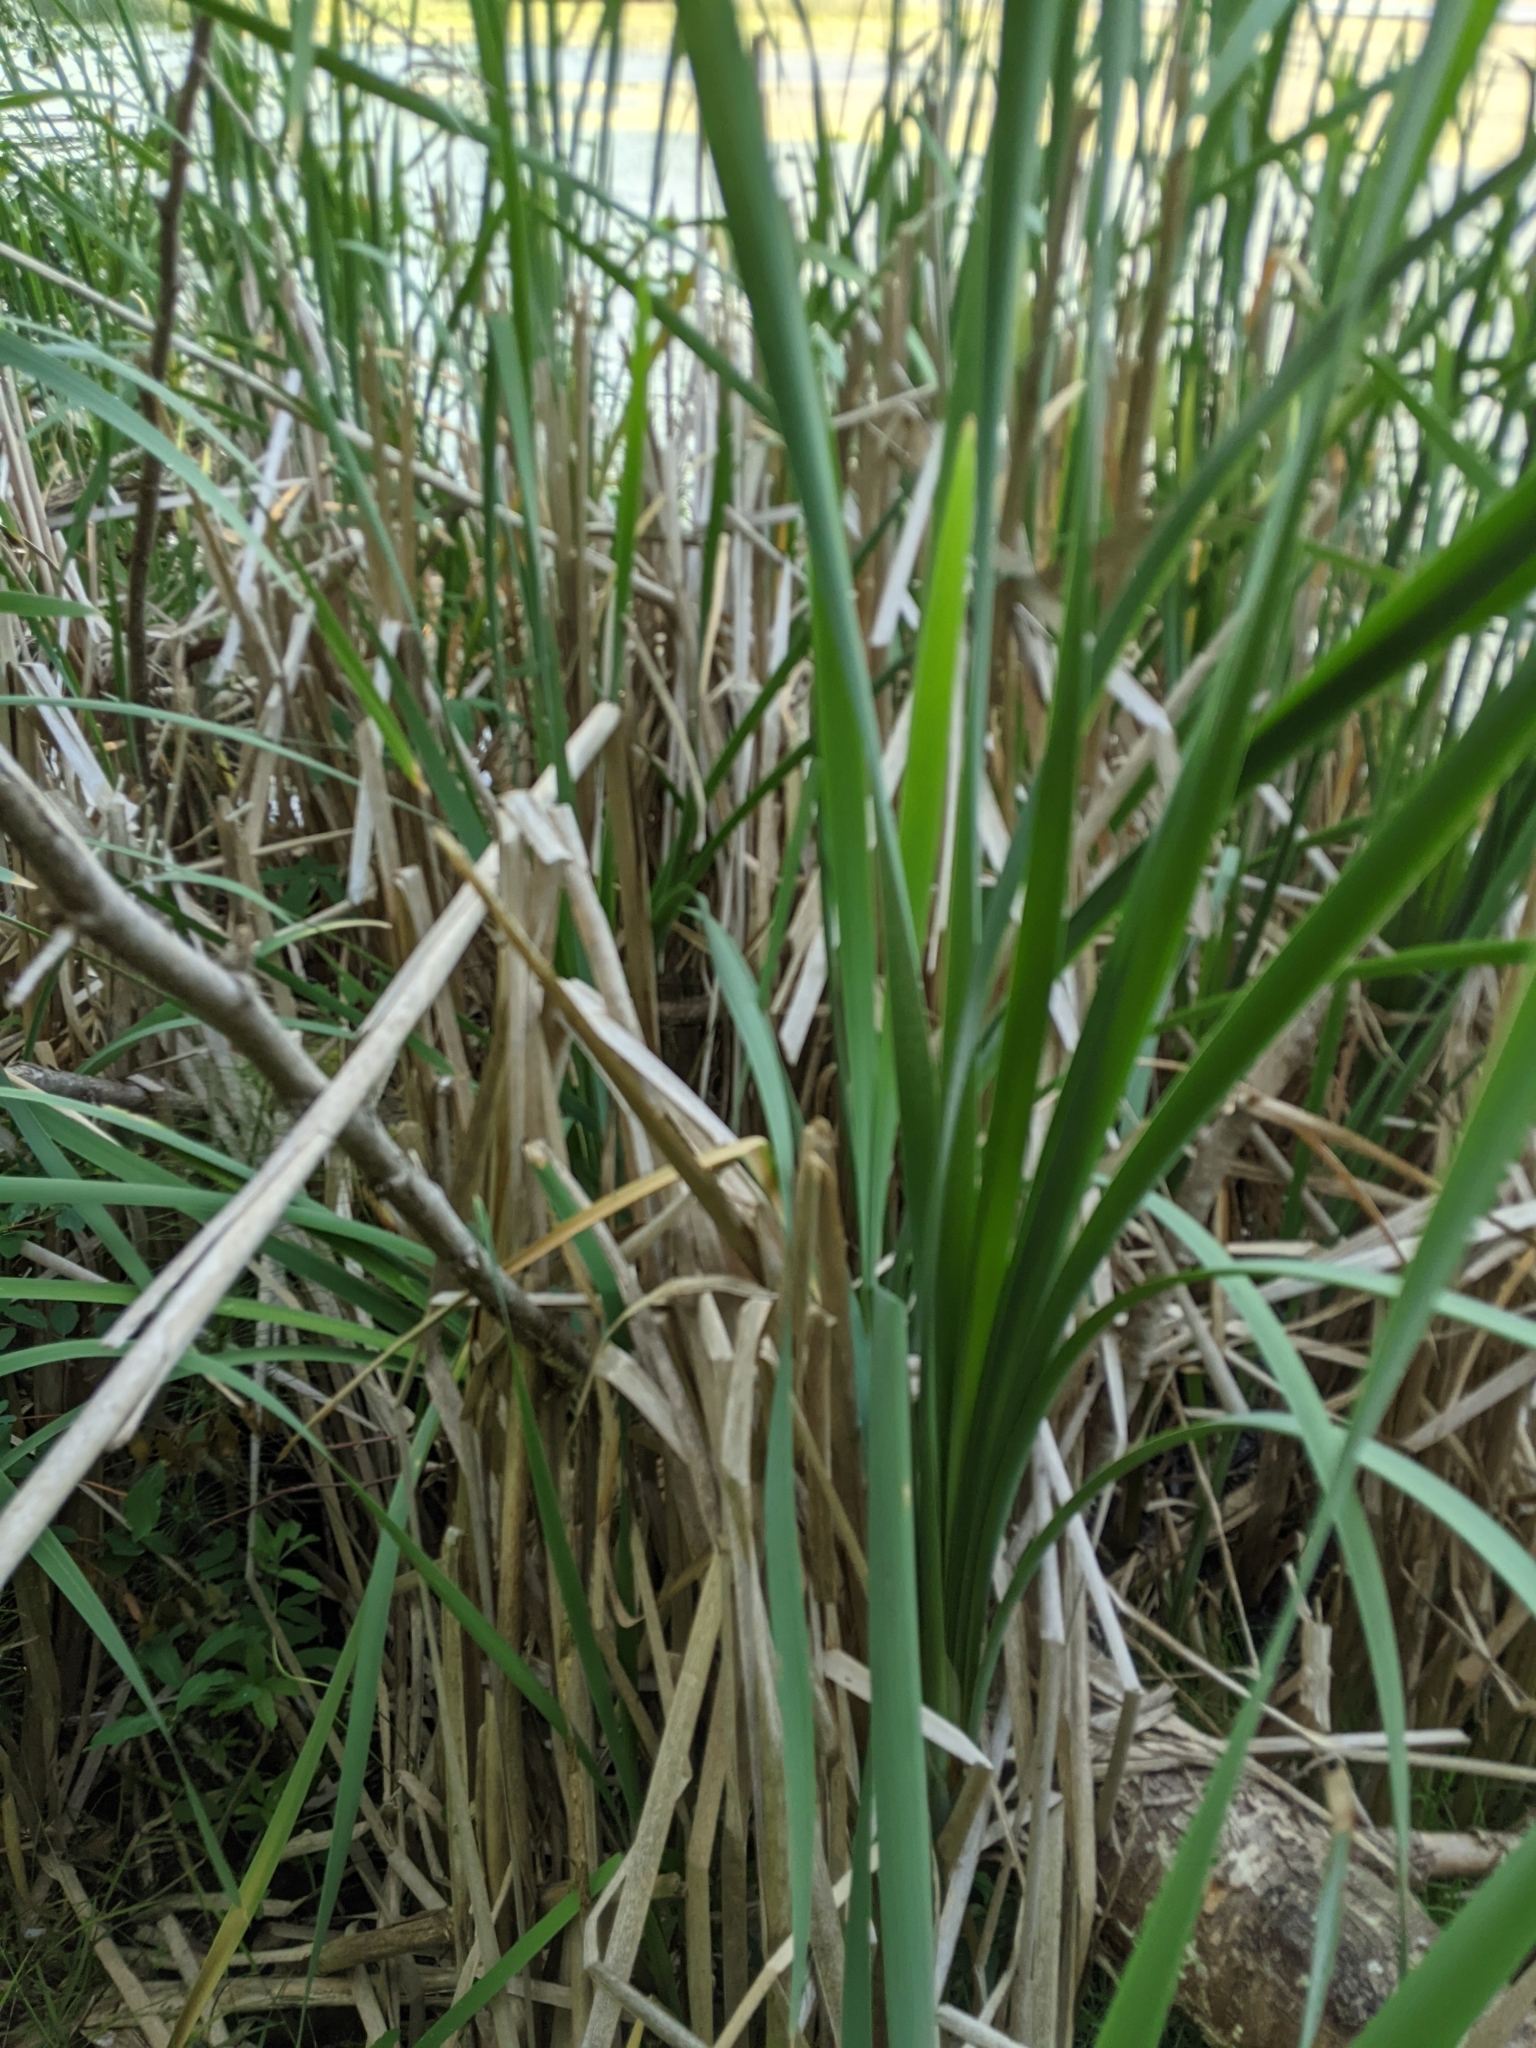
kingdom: Plantae
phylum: Tracheophyta
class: Liliopsida
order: Poales
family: Typhaceae
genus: Typha
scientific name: Typha latifolia
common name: Broadleaf cattail
